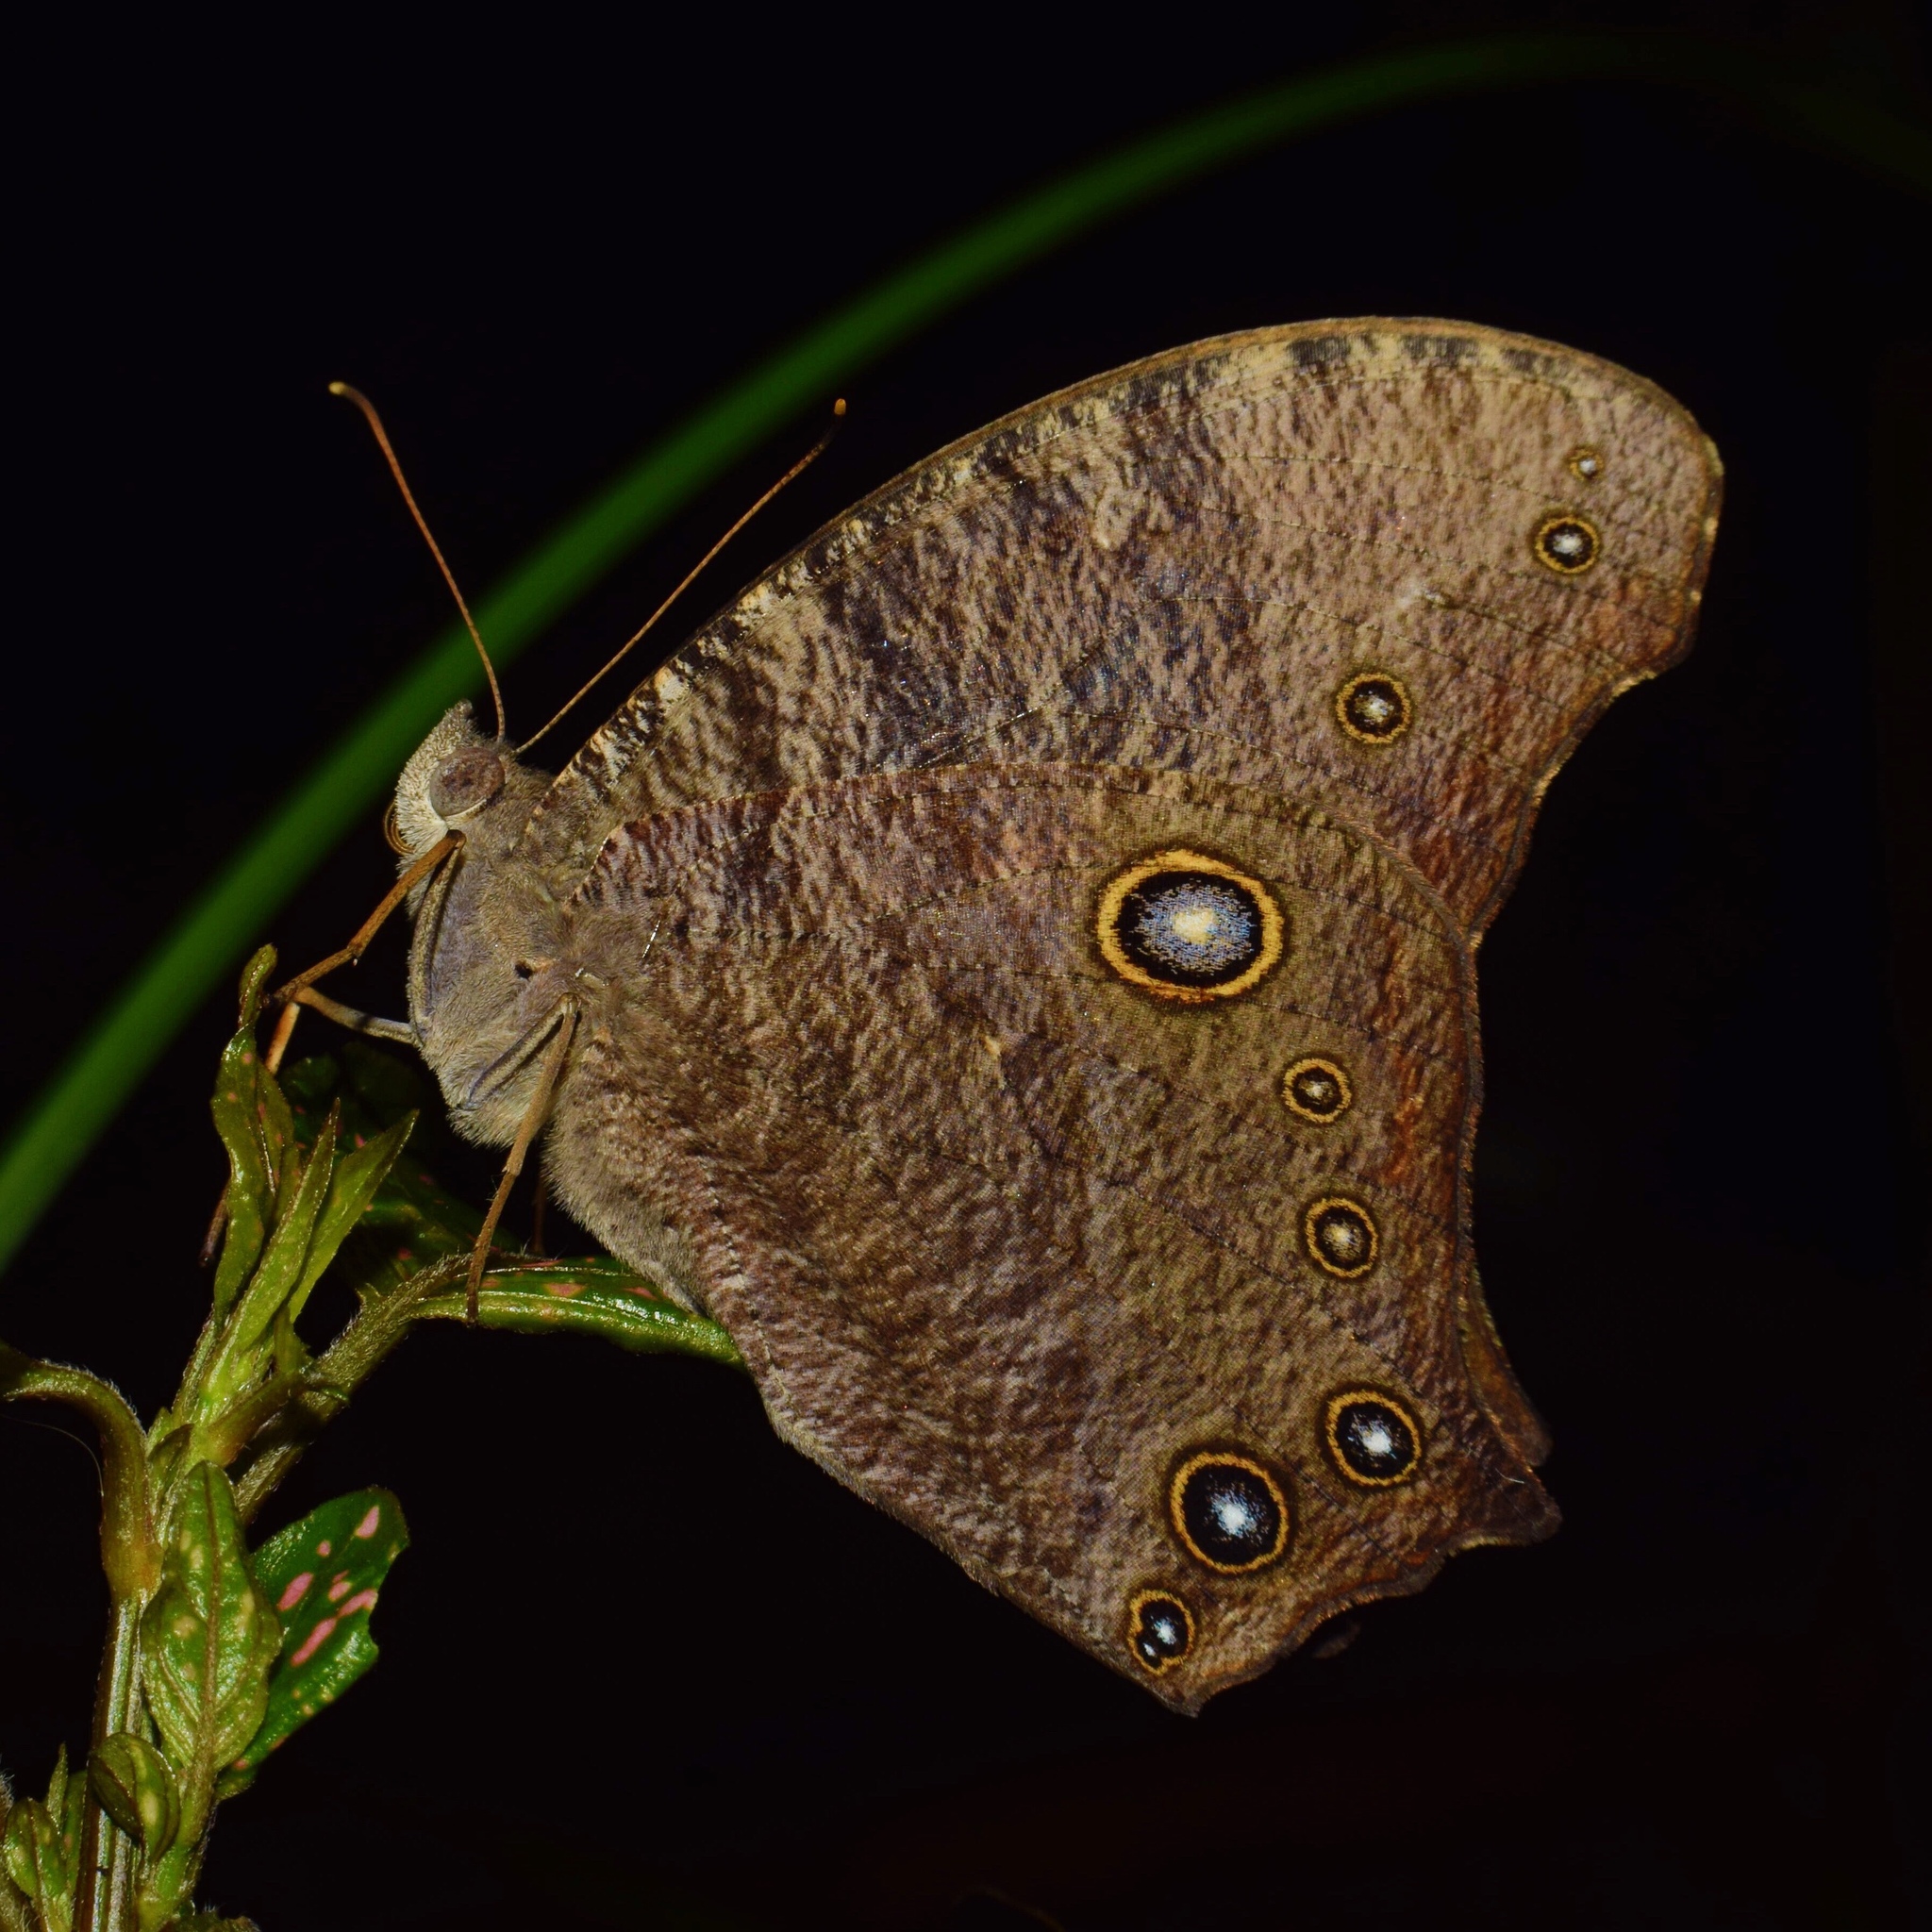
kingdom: Animalia
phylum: Arthropoda
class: Insecta
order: Lepidoptera
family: Nymphalidae
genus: Melanitis
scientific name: Melanitis leda
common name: Twilight brown
